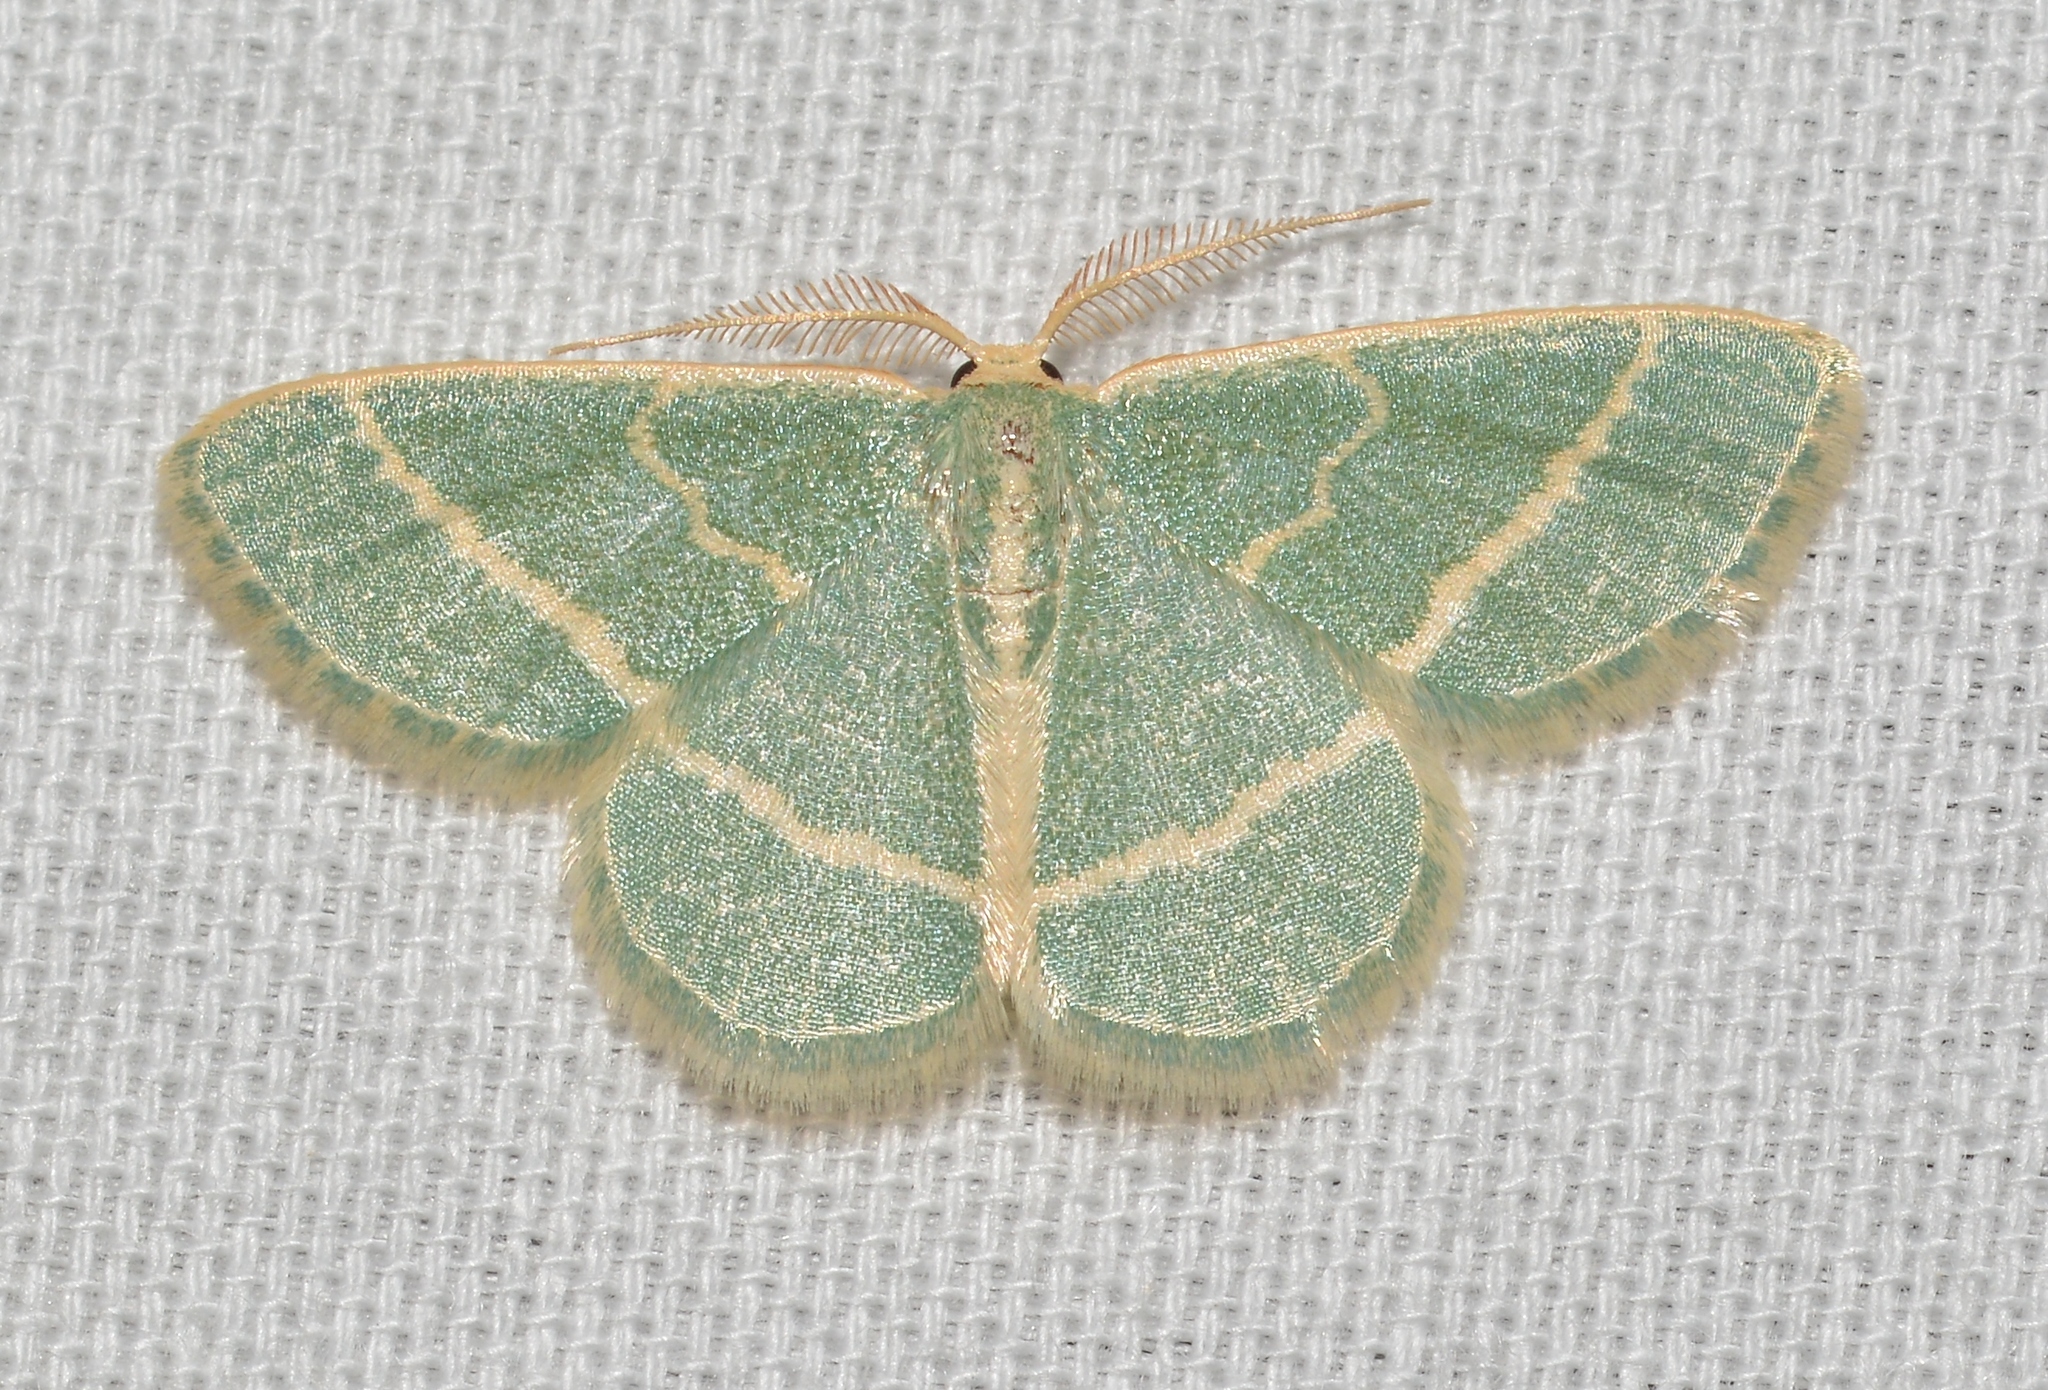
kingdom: Animalia
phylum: Arthropoda
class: Insecta
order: Lepidoptera
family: Geometridae
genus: Chlorochlamys
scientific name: Chlorochlamys chloroleucaria
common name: Blackberry looper
